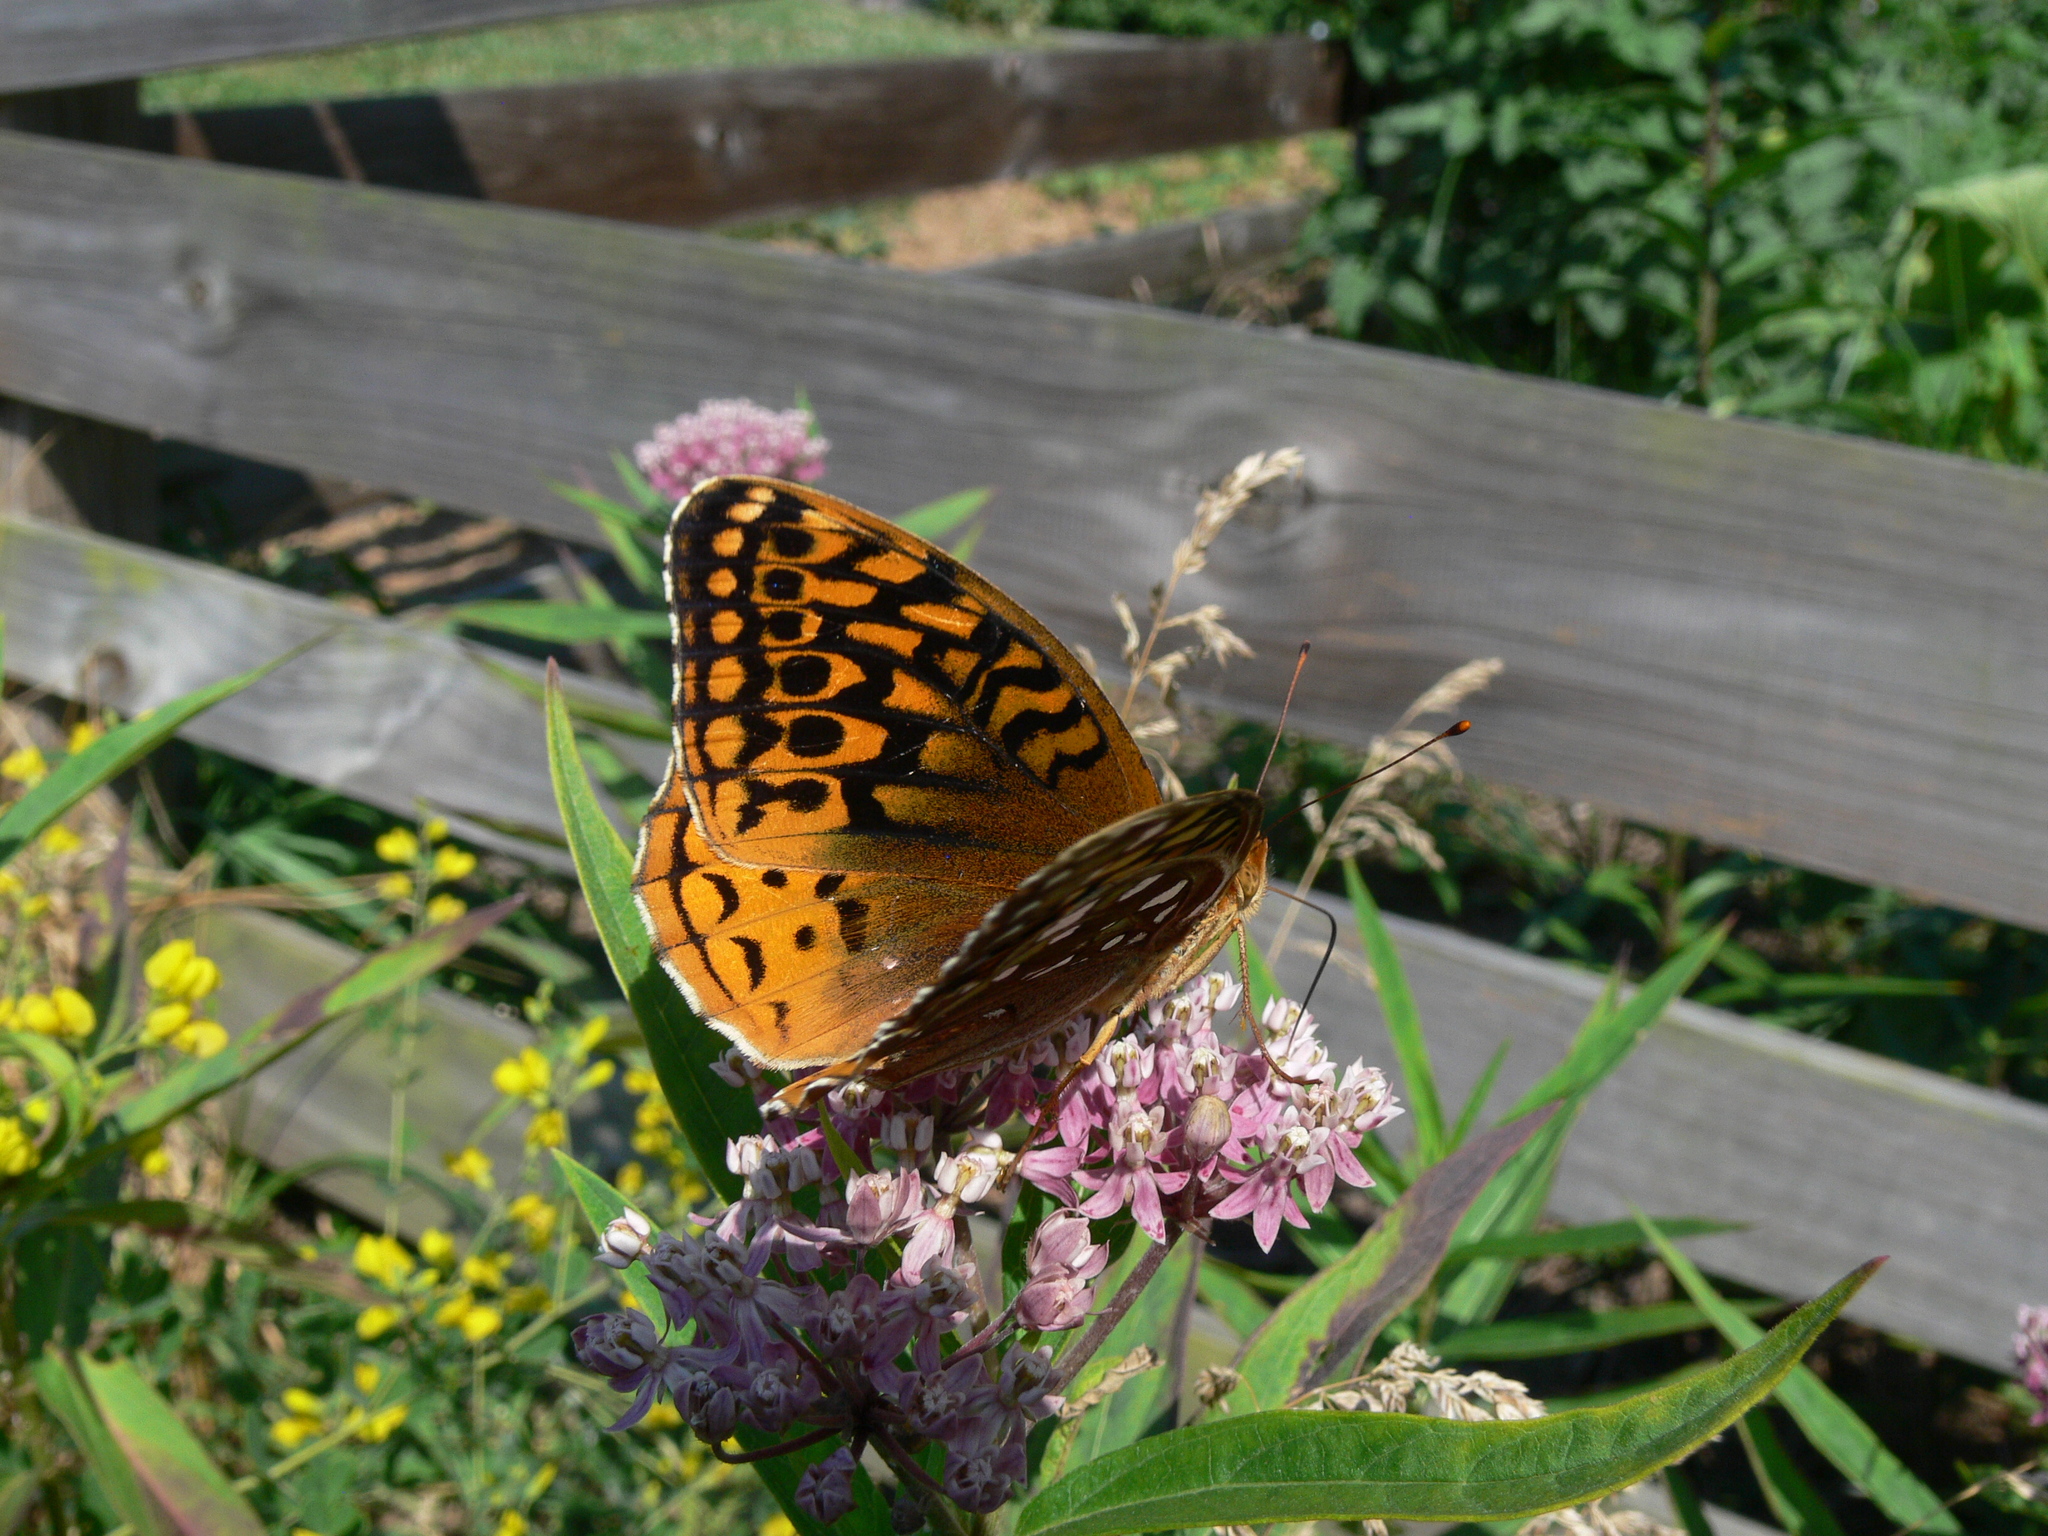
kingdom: Animalia
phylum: Arthropoda
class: Insecta
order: Lepidoptera
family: Nymphalidae
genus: Speyeria
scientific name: Speyeria cybele
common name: Great spangled fritillary
